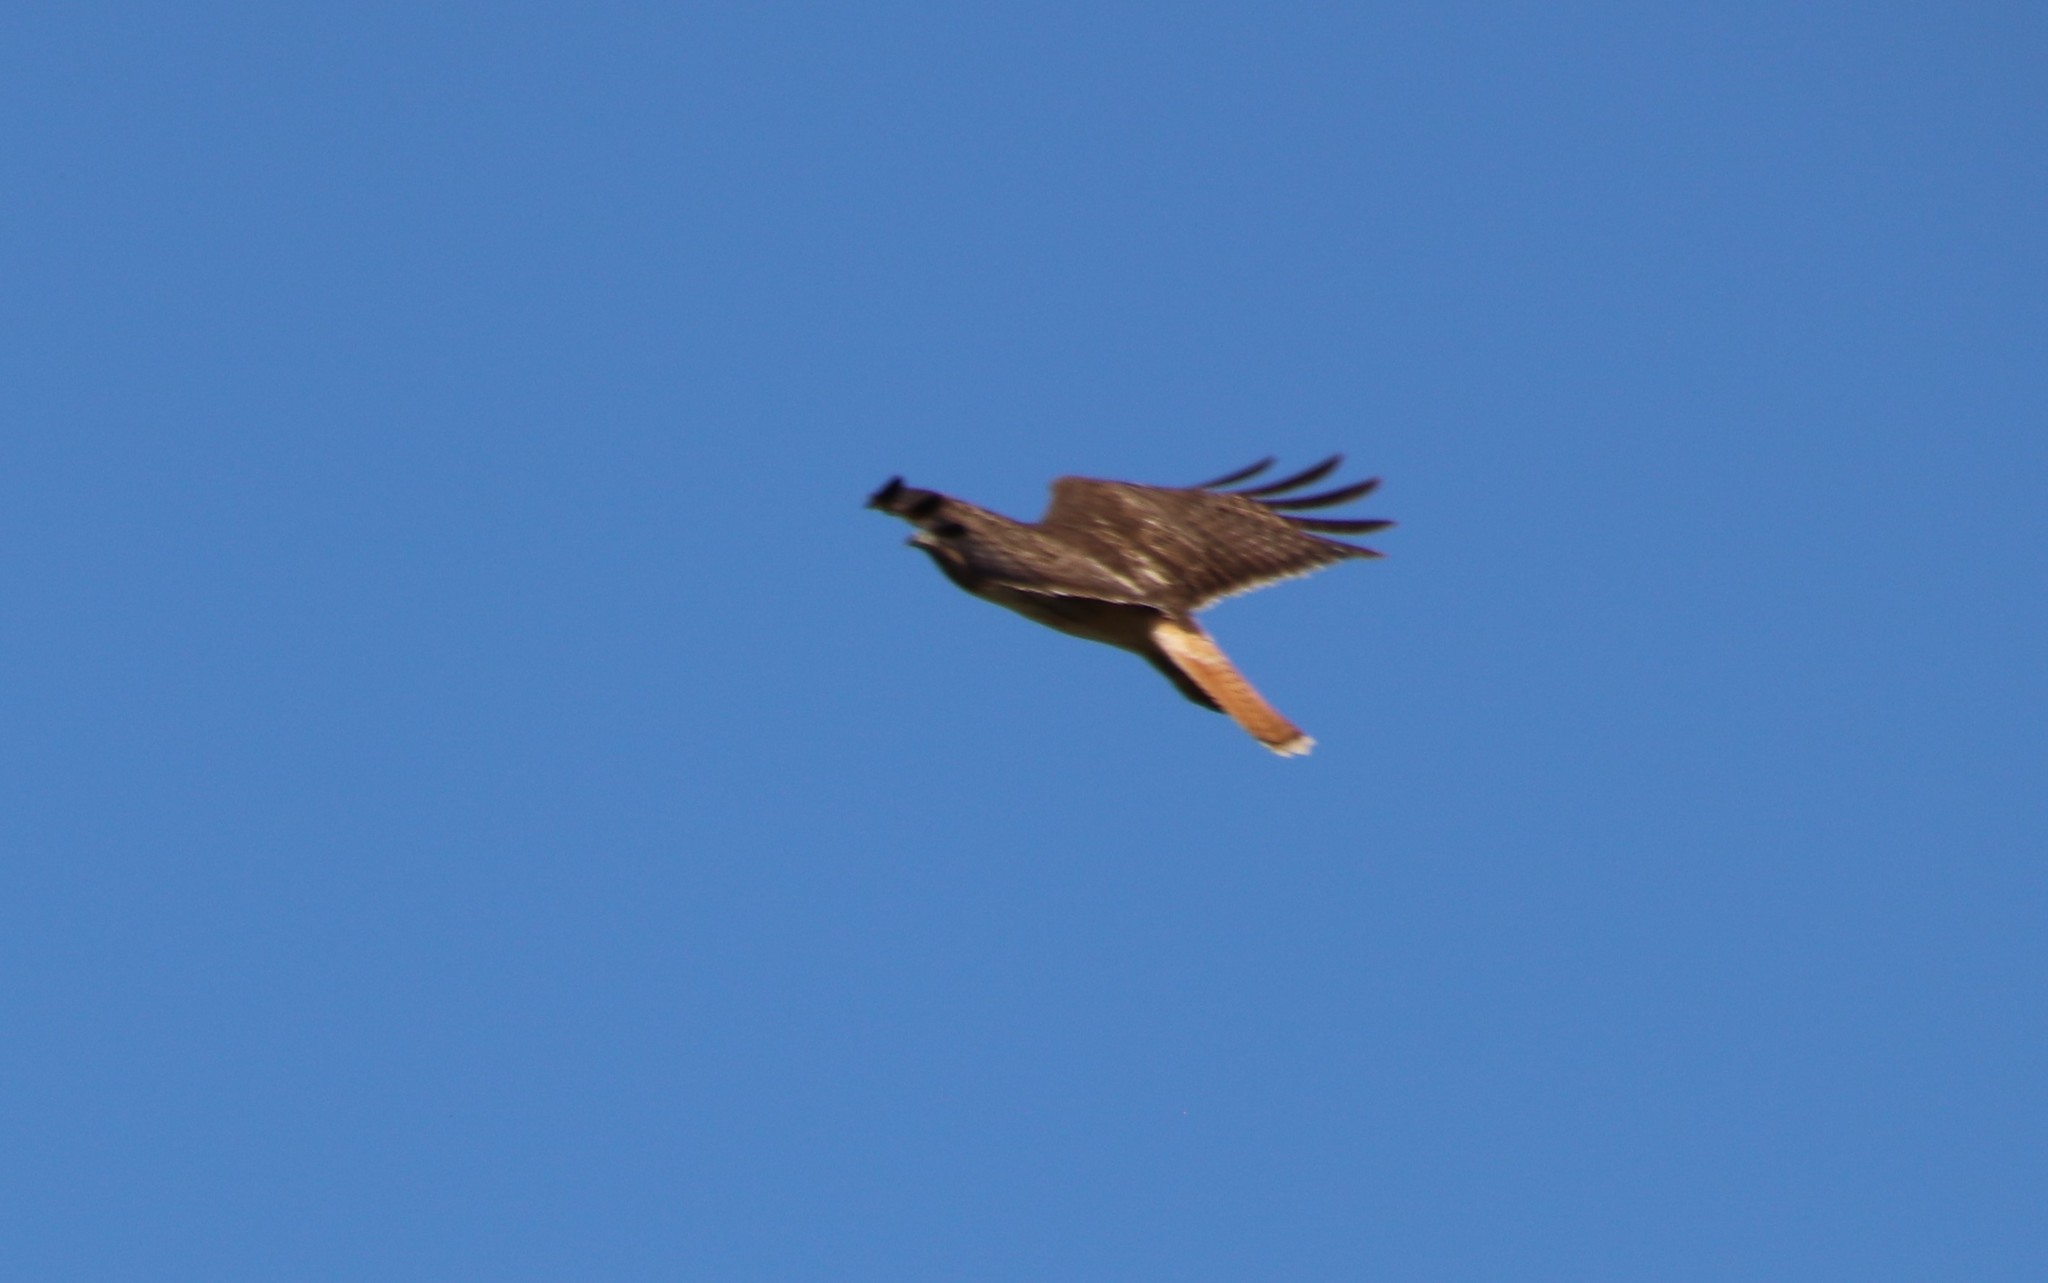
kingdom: Animalia
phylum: Chordata
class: Aves
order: Accipitriformes
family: Accipitridae
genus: Buteo
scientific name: Buteo jamaicensis
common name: Red-tailed hawk
